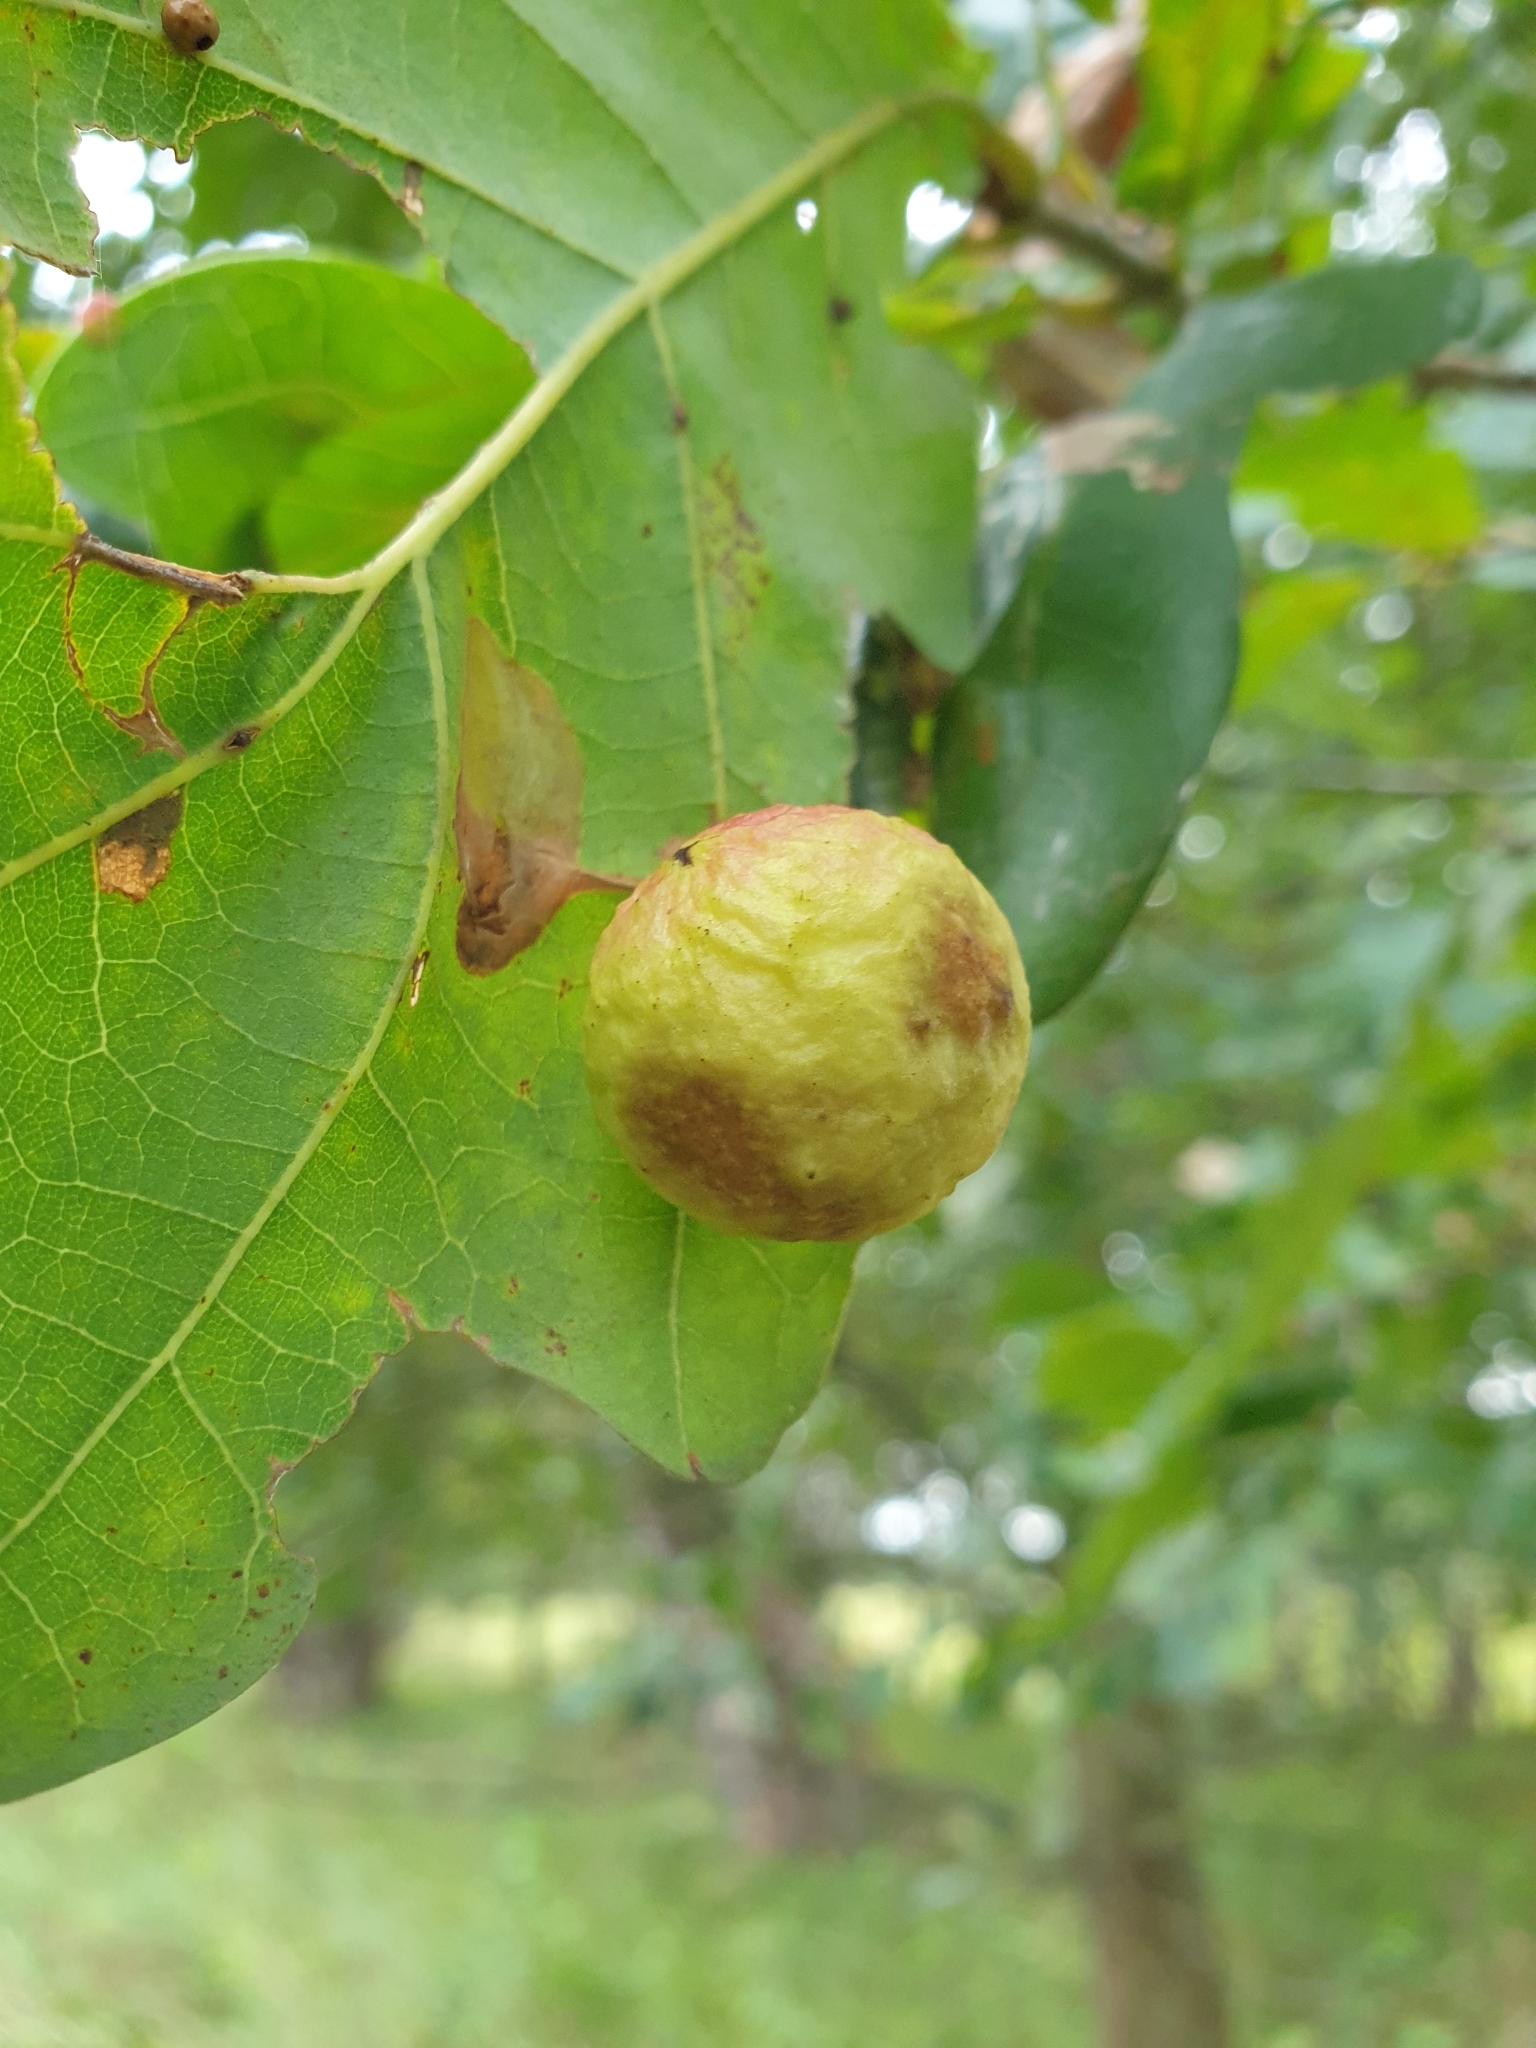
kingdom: Animalia
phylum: Arthropoda
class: Insecta
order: Hymenoptera
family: Cynipidae
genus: Cynips
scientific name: Cynips quercusfolii
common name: Cherry gall
